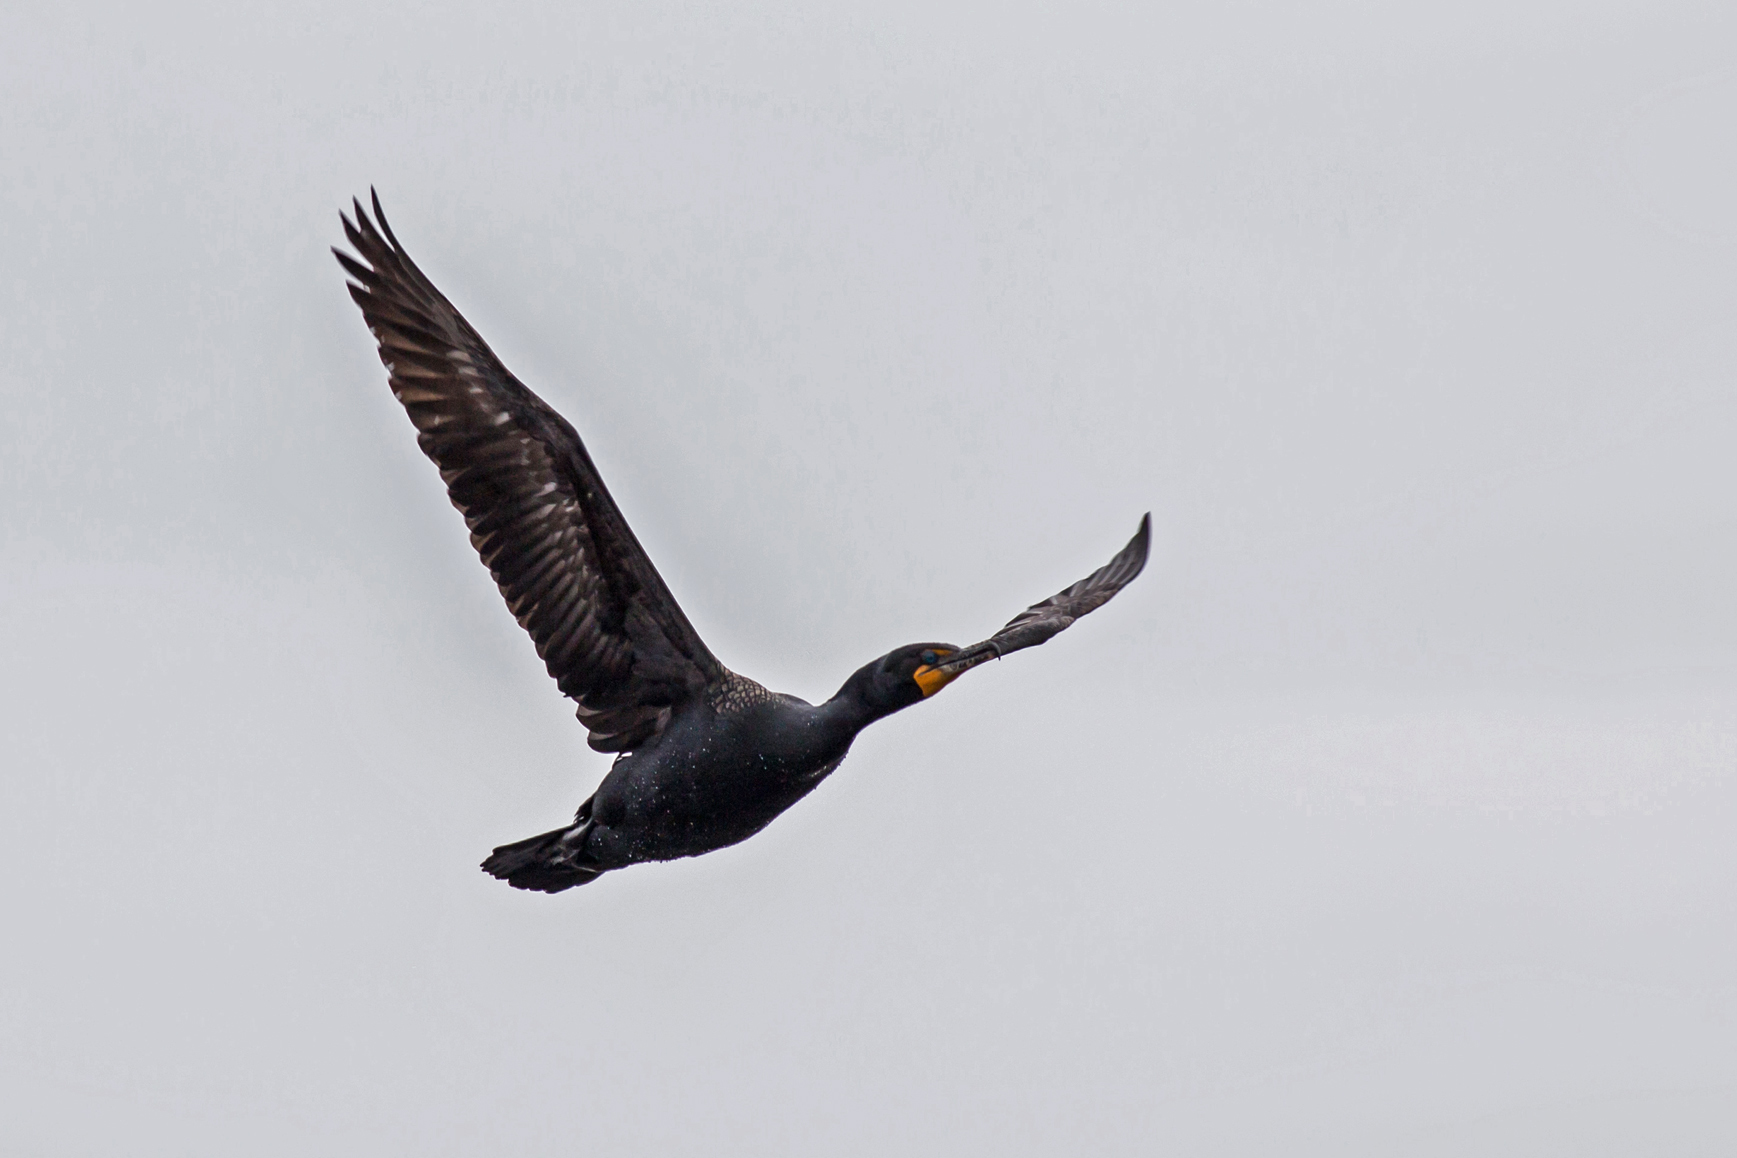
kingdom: Animalia
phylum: Chordata
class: Aves
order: Suliformes
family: Phalacrocoracidae
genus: Phalacrocorax
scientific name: Phalacrocorax auritus
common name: Double-crested cormorant
